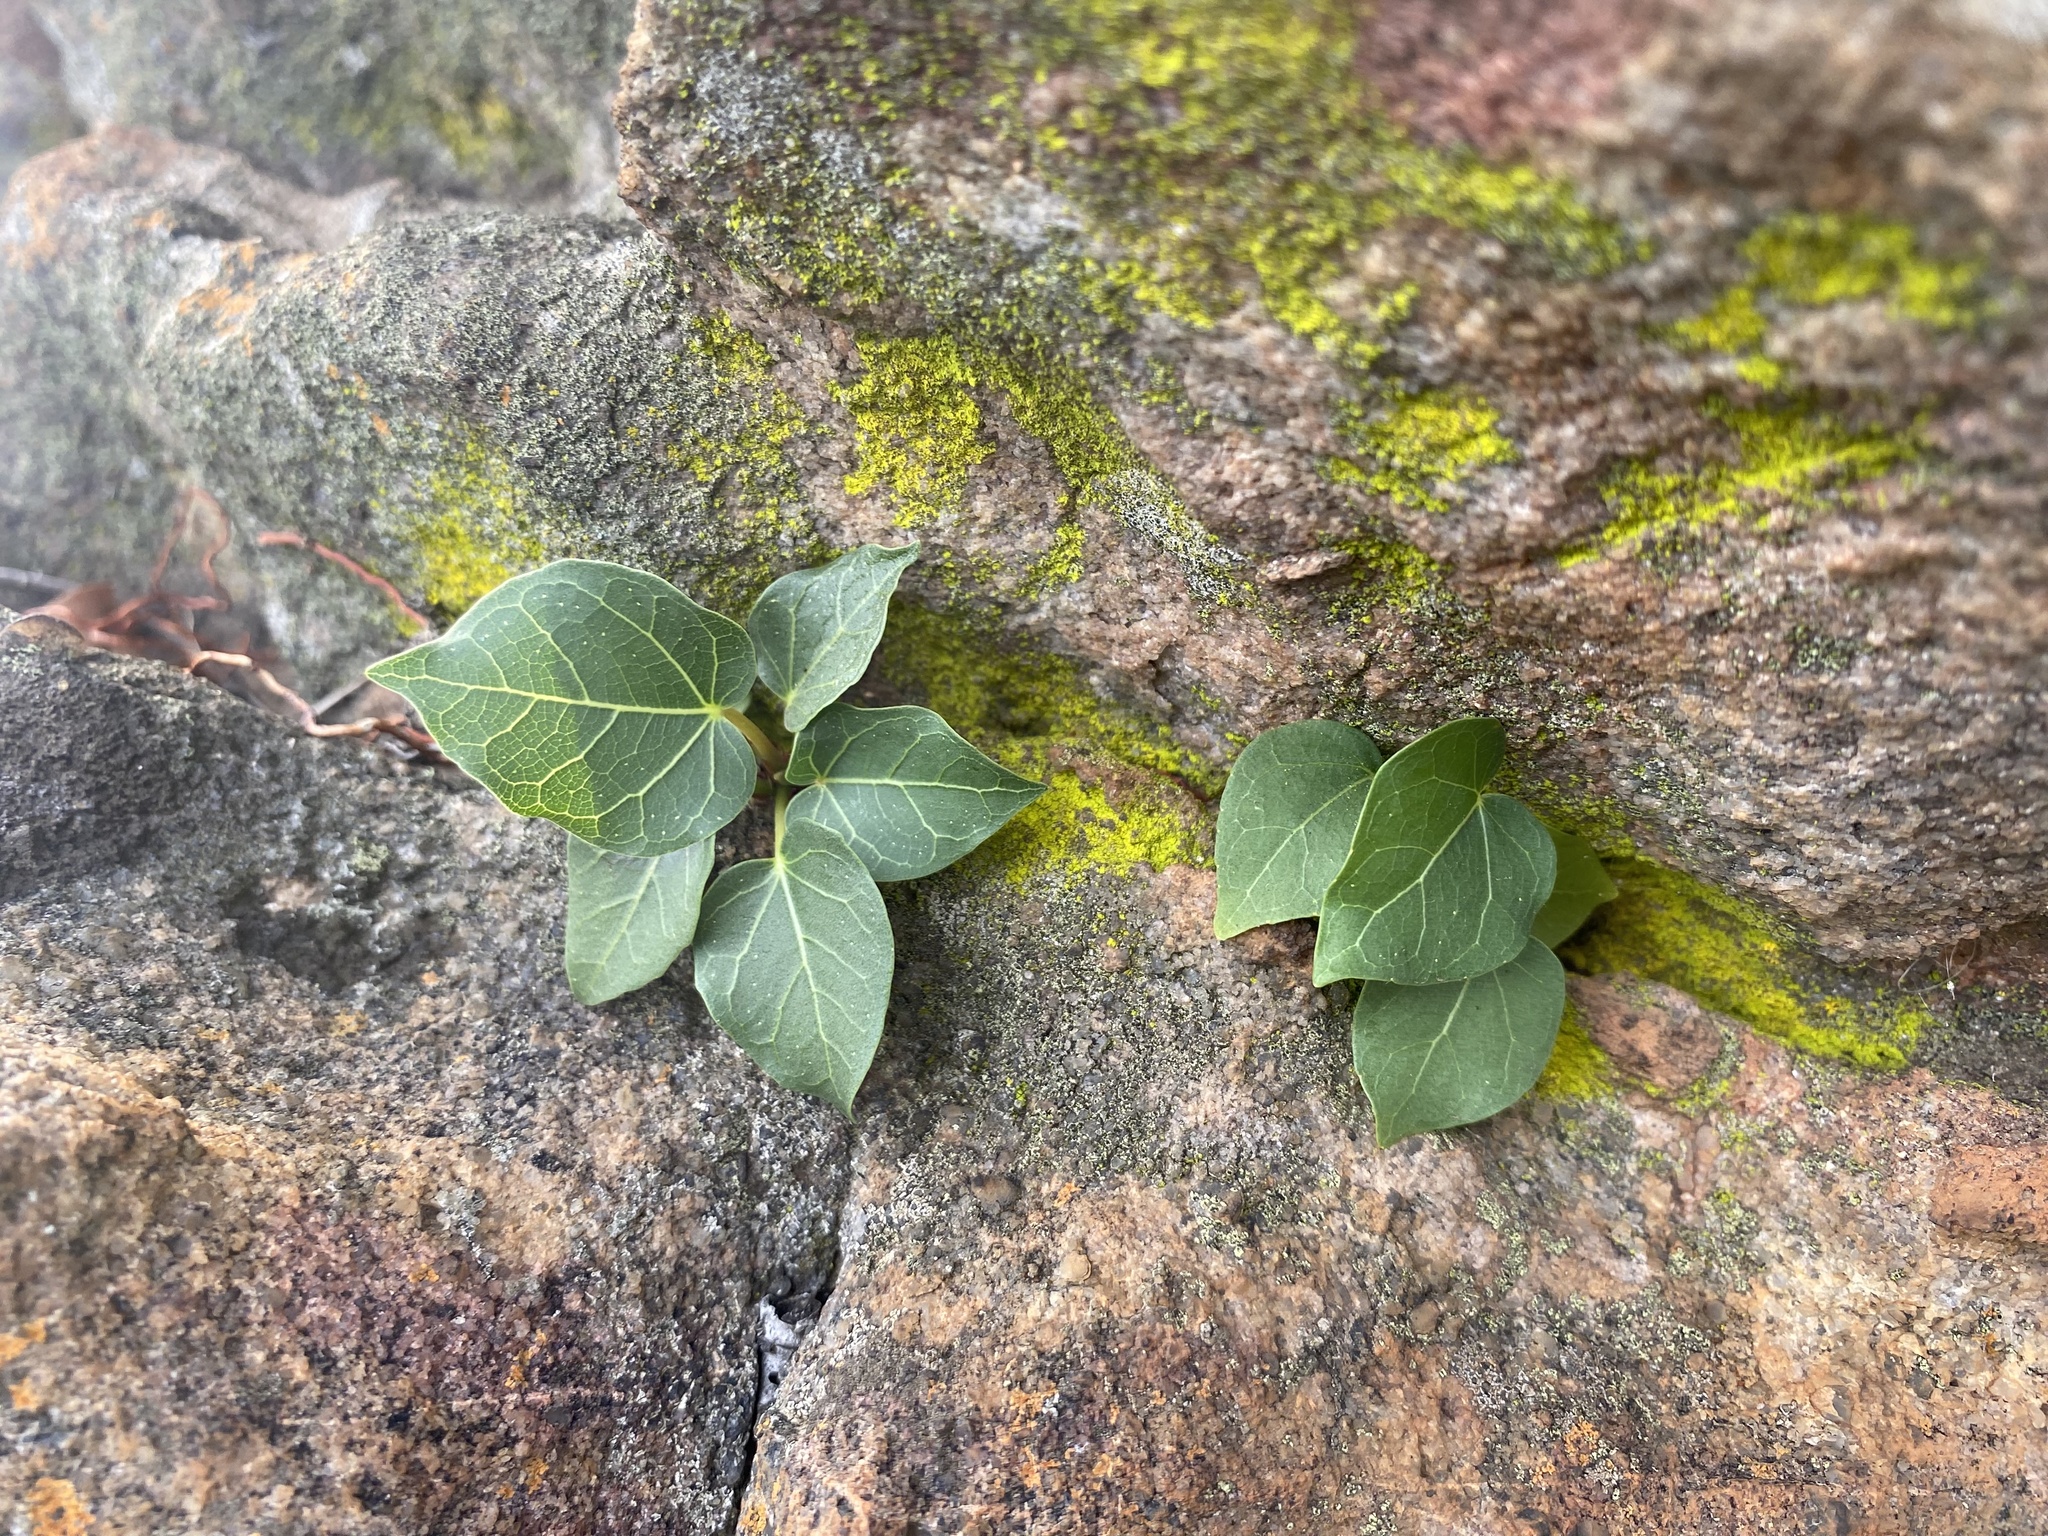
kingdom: Plantae
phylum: Tracheophyta
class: Magnoliopsida
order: Rosales
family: Moraceae
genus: Ficus
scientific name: Ficus glumosa
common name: Hairy rock fig
